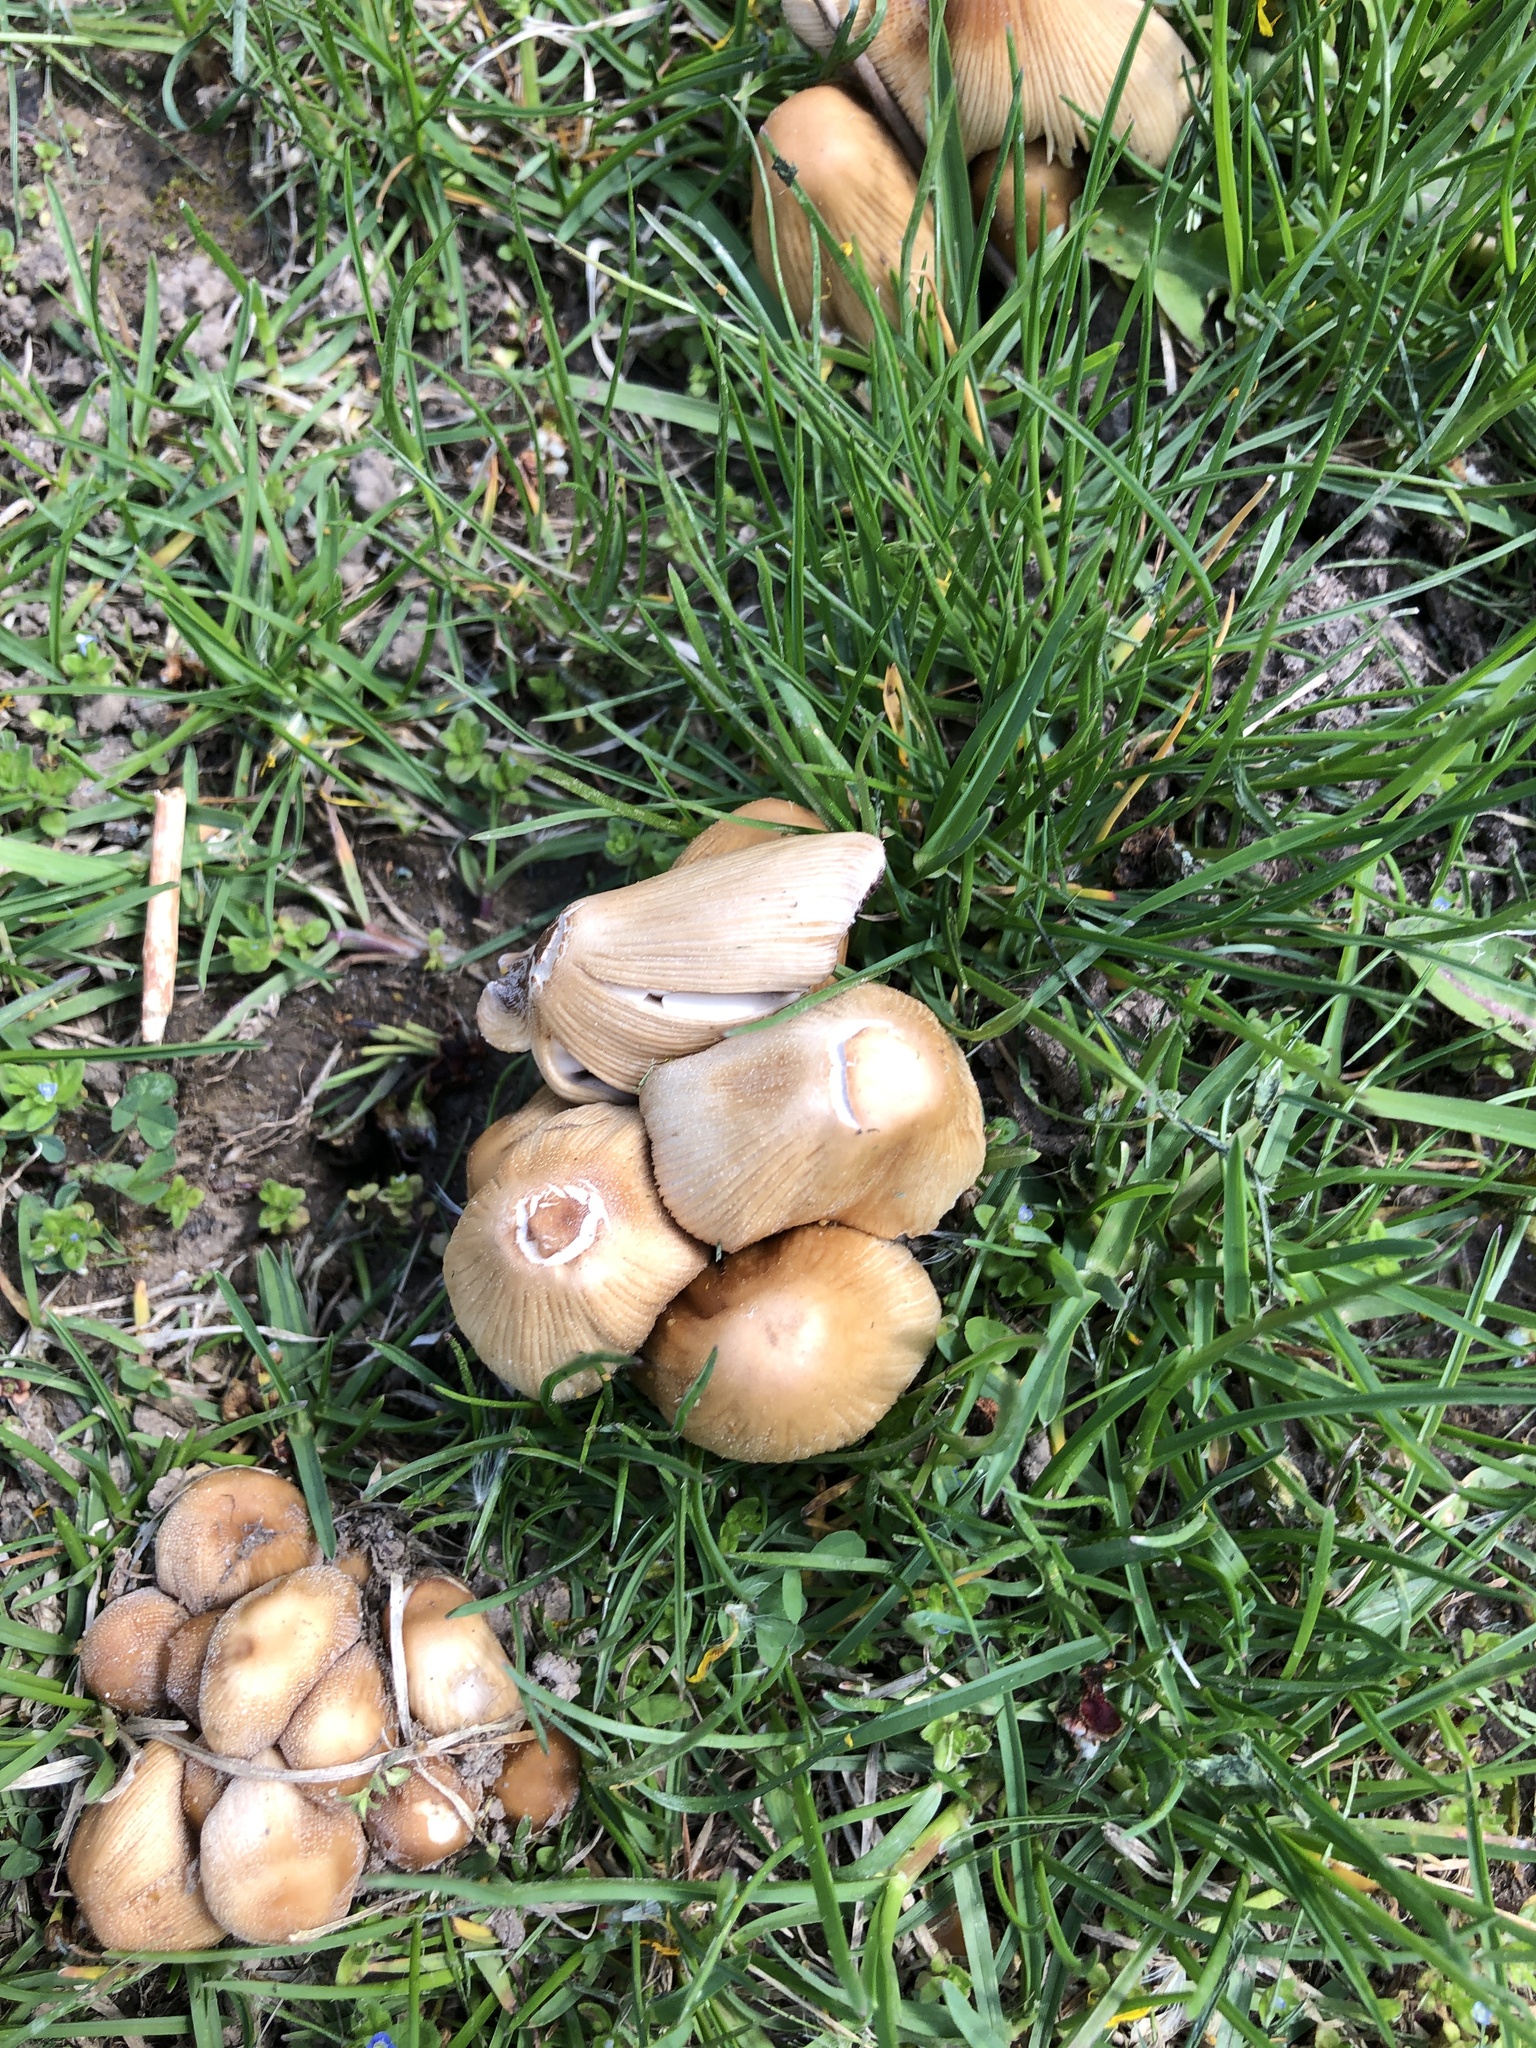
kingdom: Fungi
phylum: Basidiomycota
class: Agaricomycetes
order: Agaricales
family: Psathyrellaceae
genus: Coprinellus
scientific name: Coprinellus micaceus
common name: Glistening ink-cap
